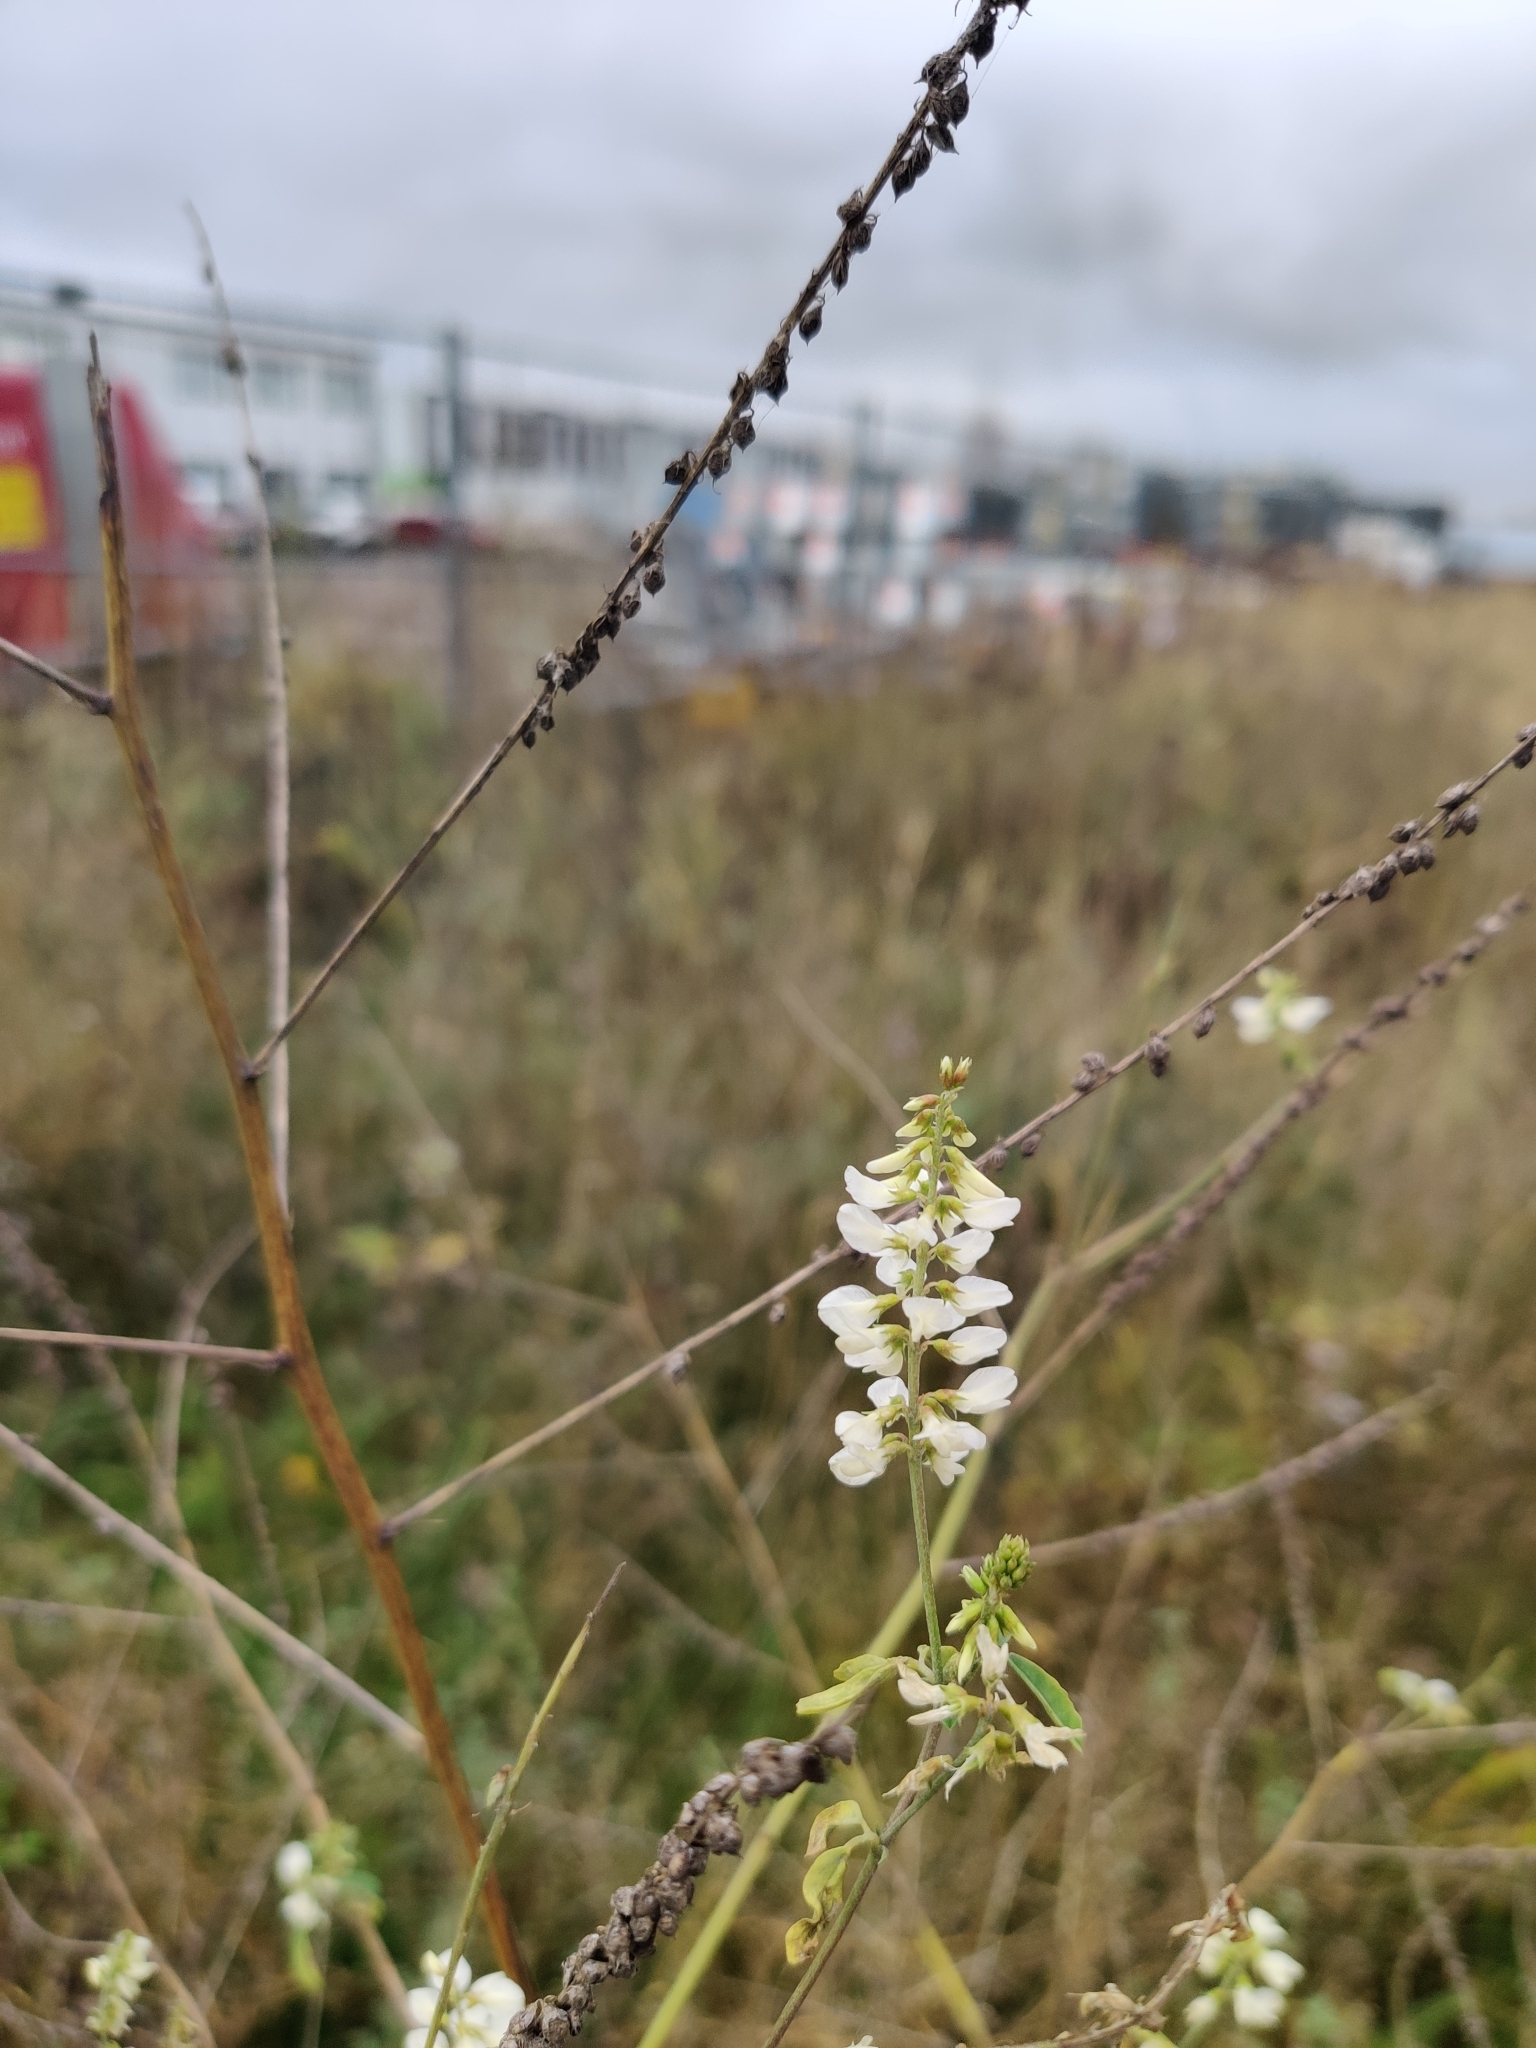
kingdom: Plantae
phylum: Tracheophyta
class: Magnoliopsida
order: Fabales
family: Fabaceae
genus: Melilotus
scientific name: Melilotus albus
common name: White melilot
